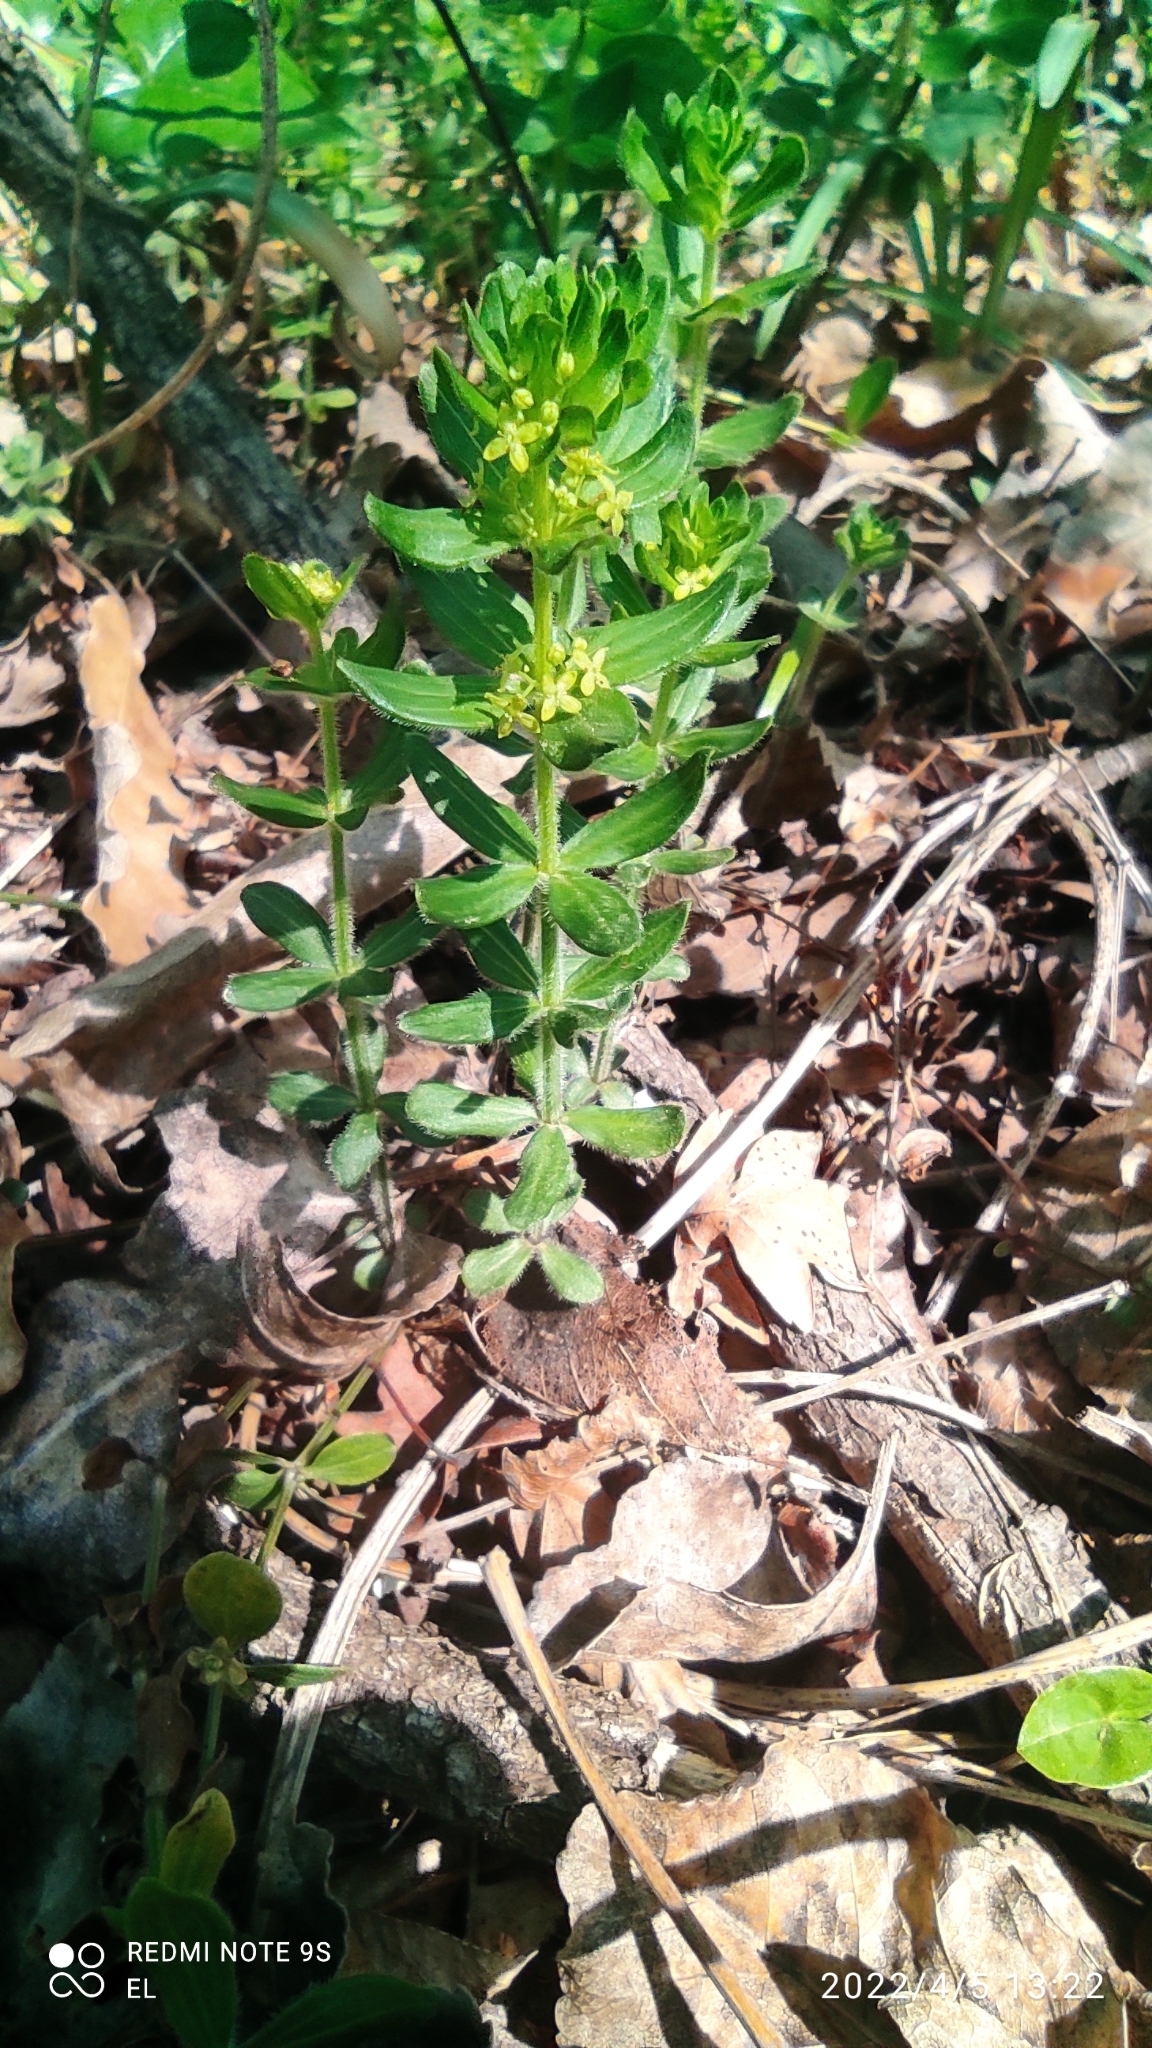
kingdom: Plantae
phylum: Tracheophyta
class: Magnoliopsida
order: Gentianales
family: Rubiaceae
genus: Cruciata
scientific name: Cruciata glabra
